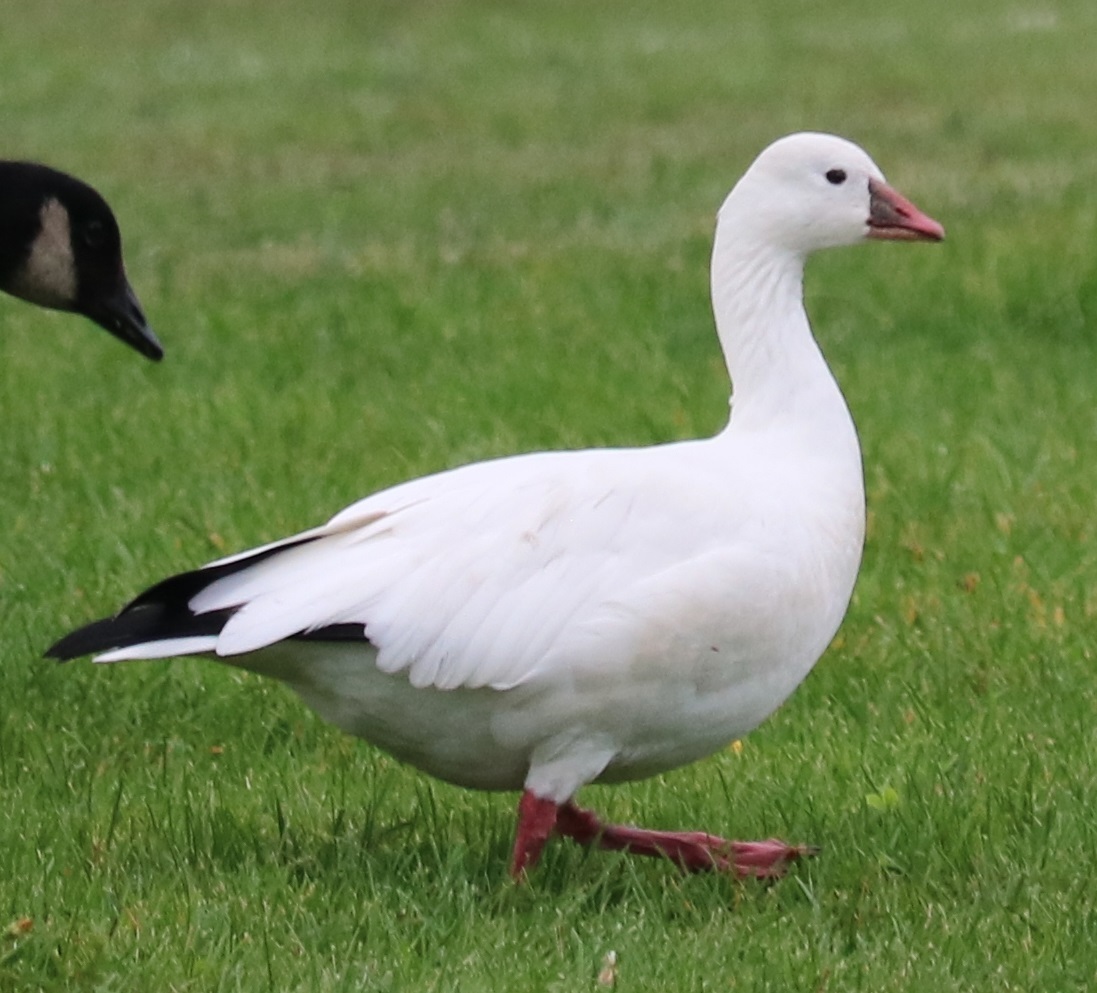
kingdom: Animalia
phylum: Chordata
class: Aves
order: Anseriformes
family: Anatidae
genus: Anser
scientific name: Anser rossii
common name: Ross's goose
